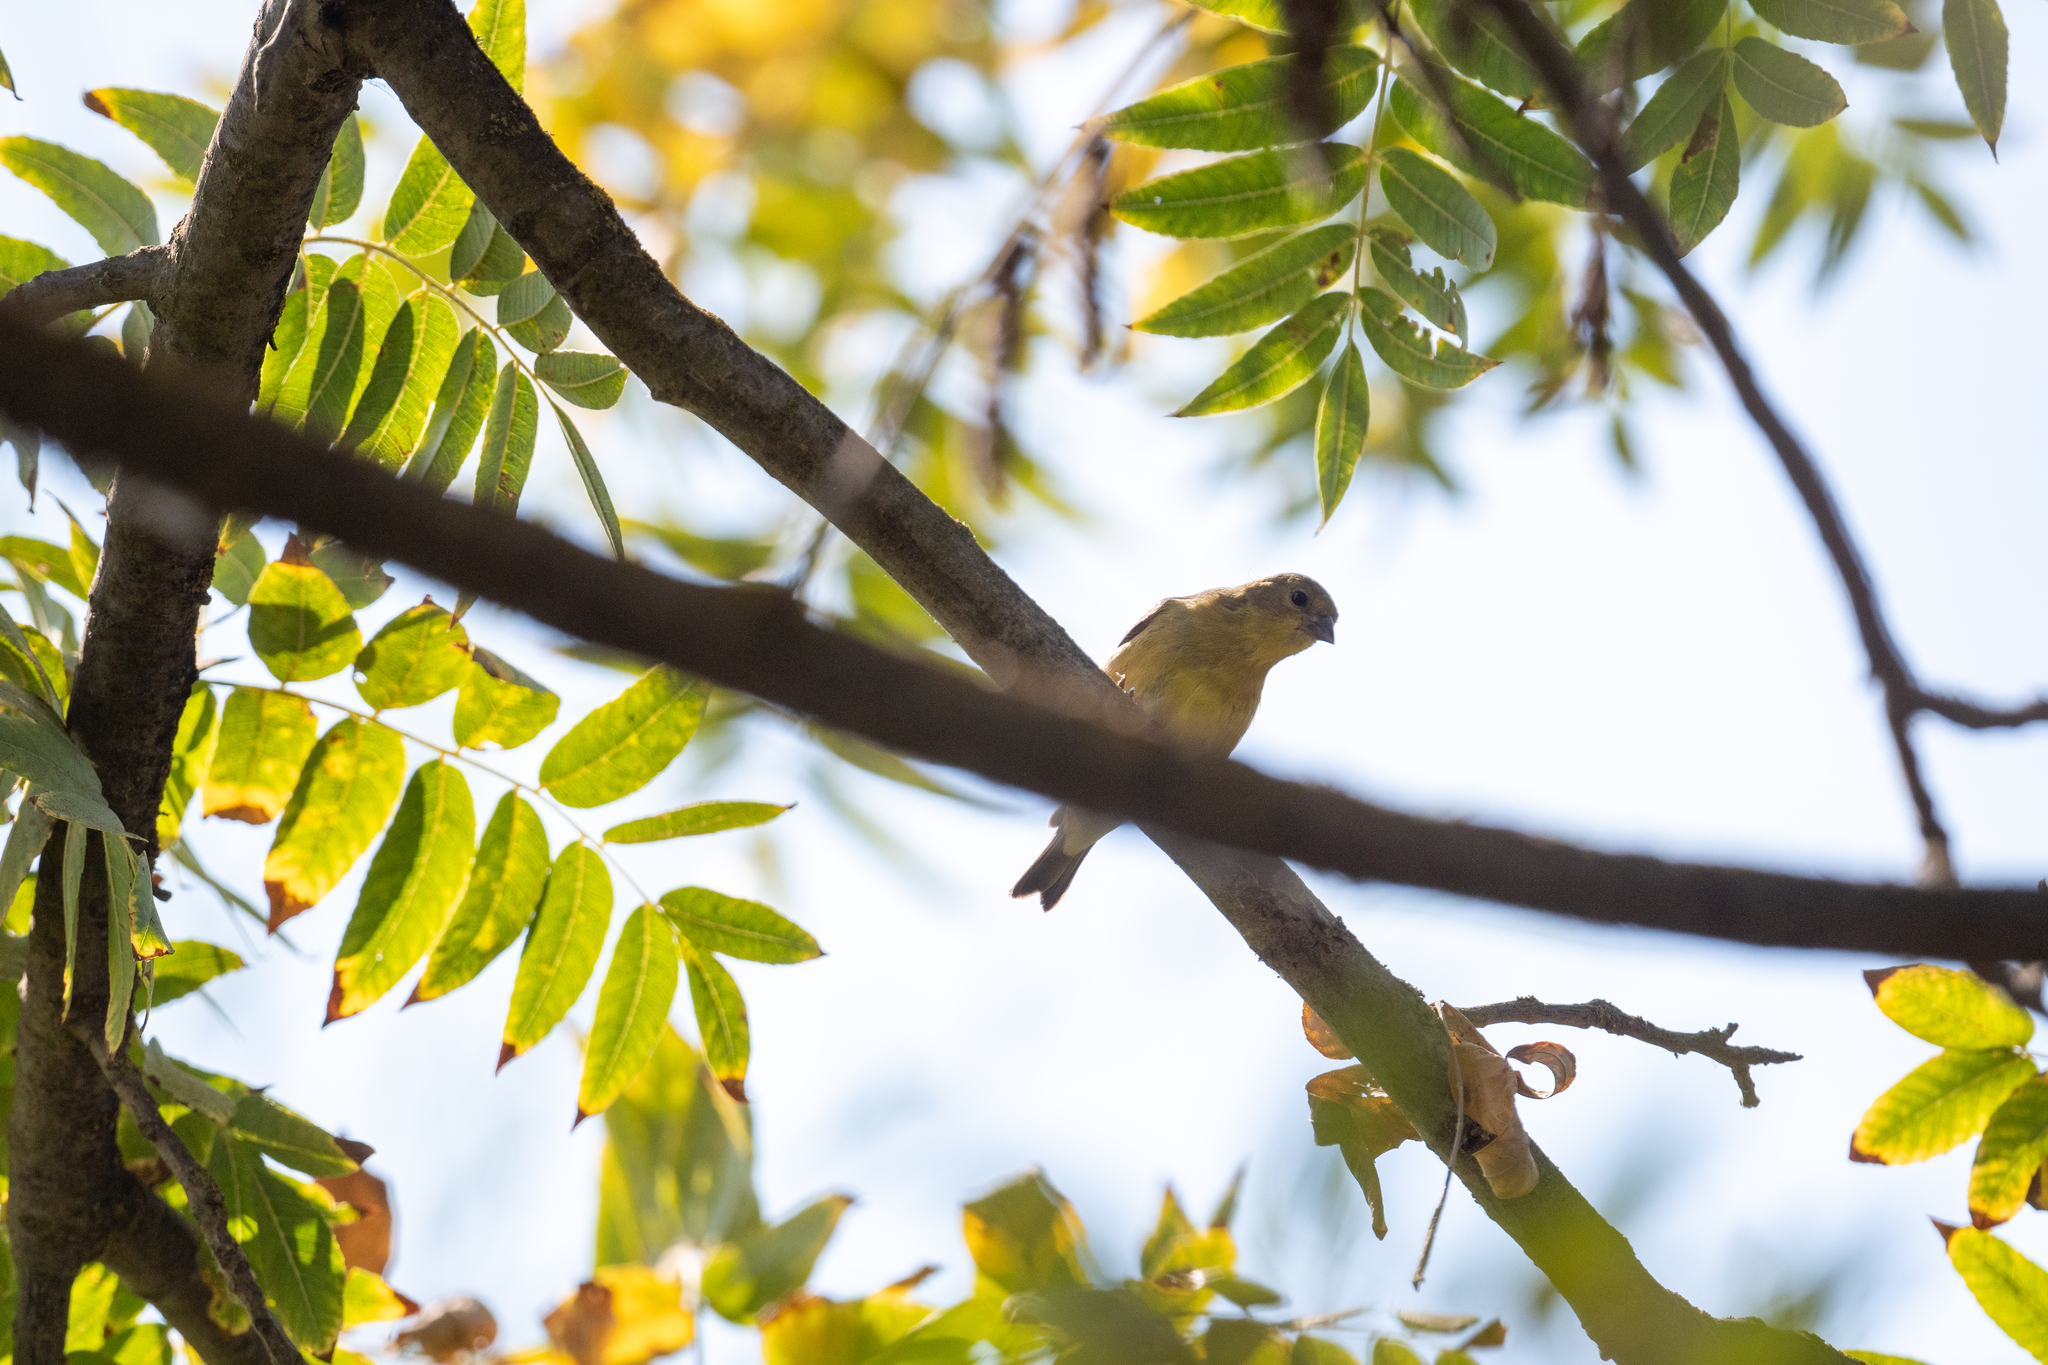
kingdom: Animalia
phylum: Chordata
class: Aves
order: Passeriformes
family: Fringillidae
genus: Spinus
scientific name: Spinus psaltria
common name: Lesser goldfinch
